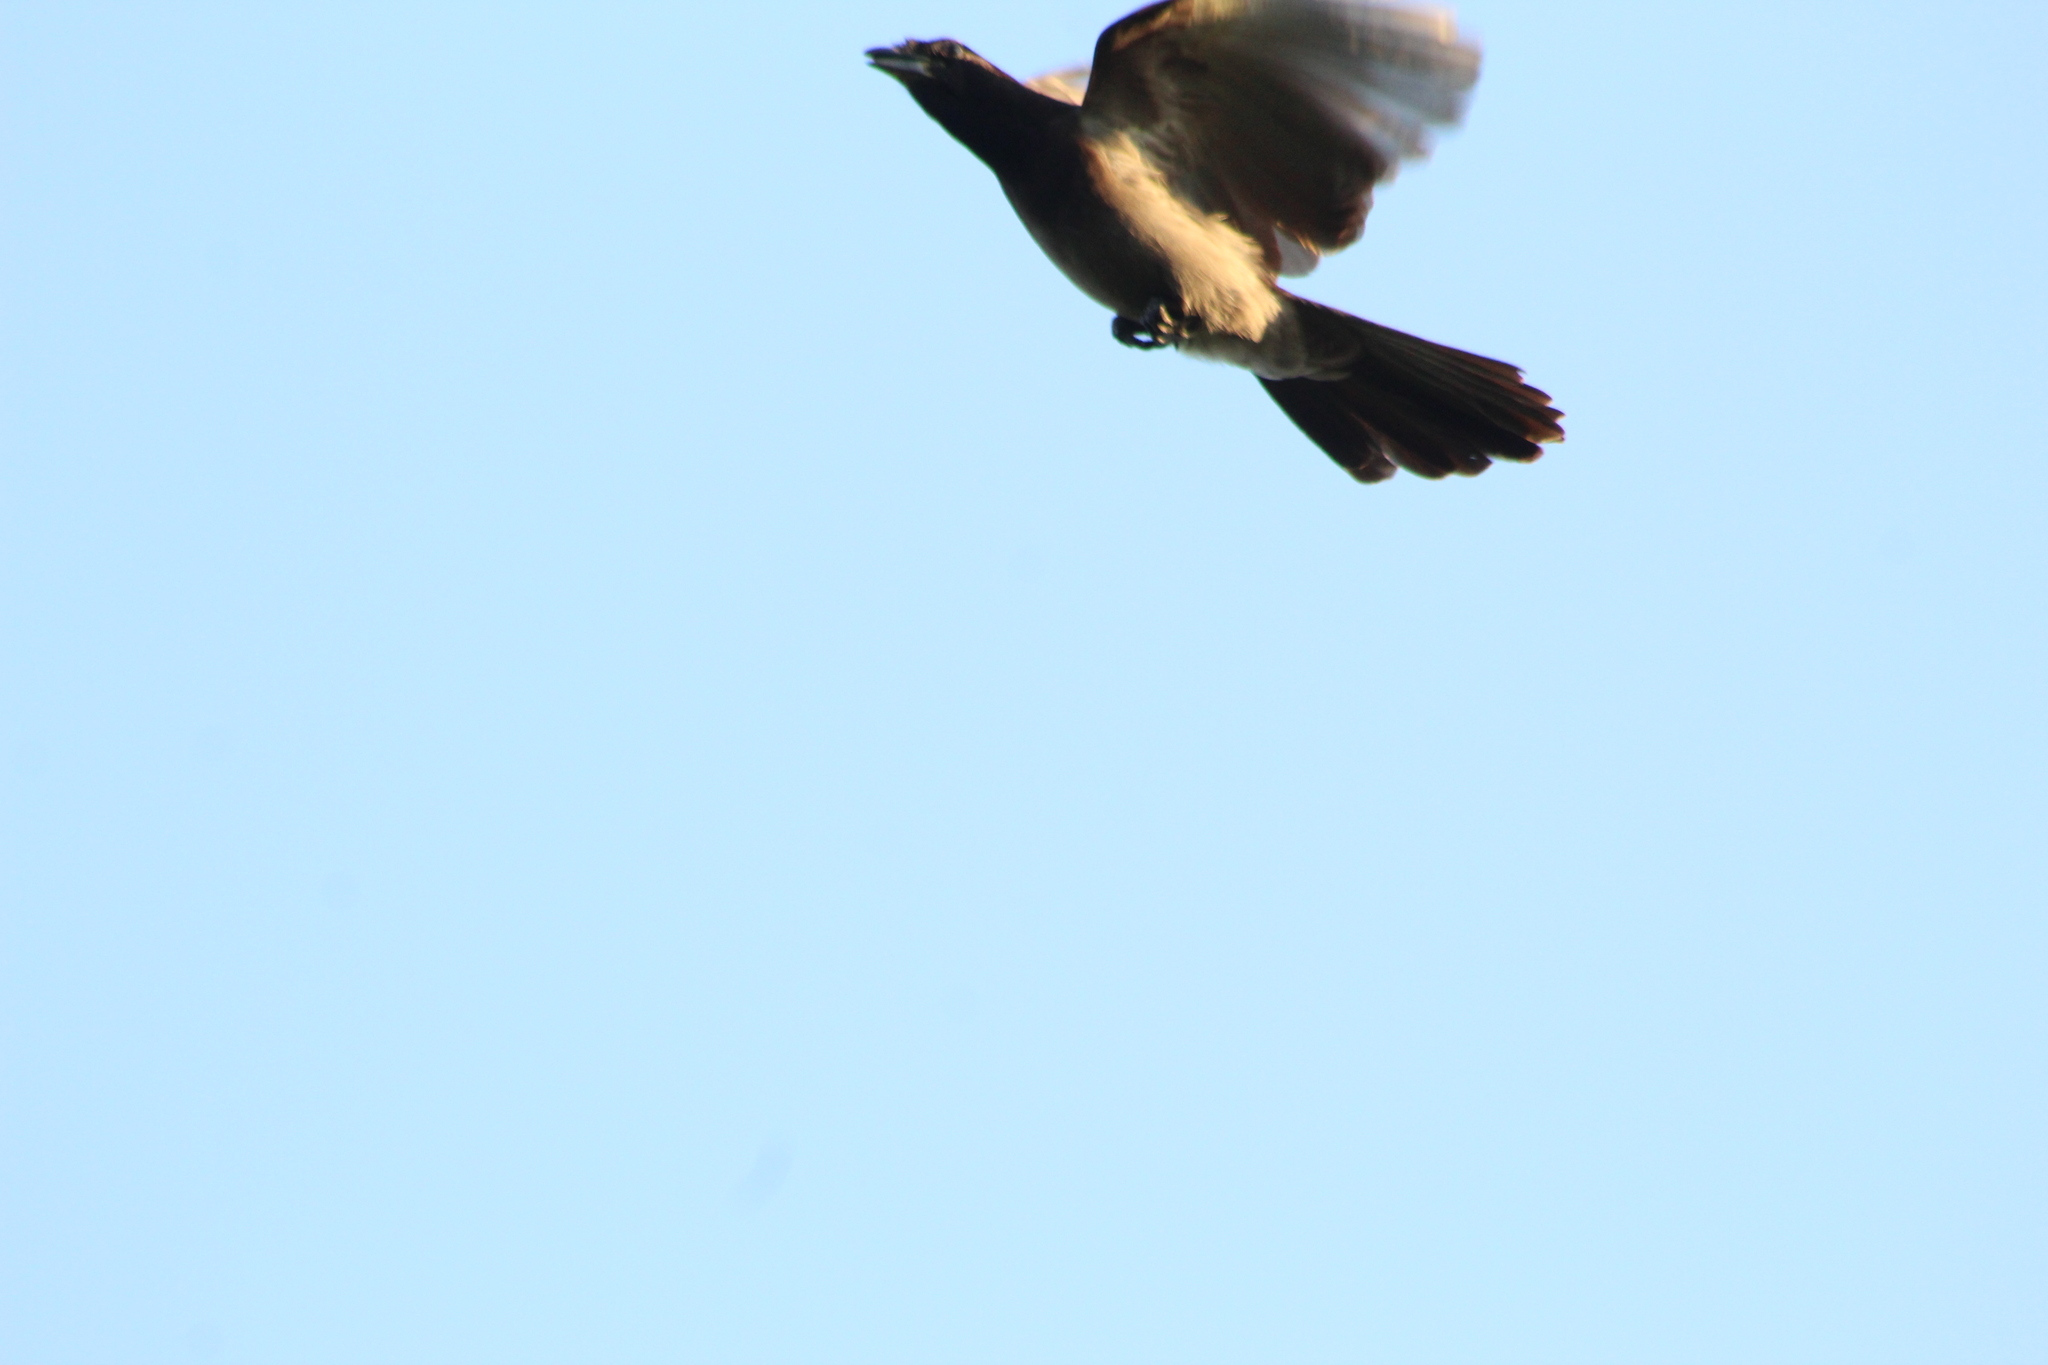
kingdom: Animalia
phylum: Chordata
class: Aves
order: Passeriformes
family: Corvidae
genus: Psilorhinus
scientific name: Psilorhinus morio
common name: Brown jay
